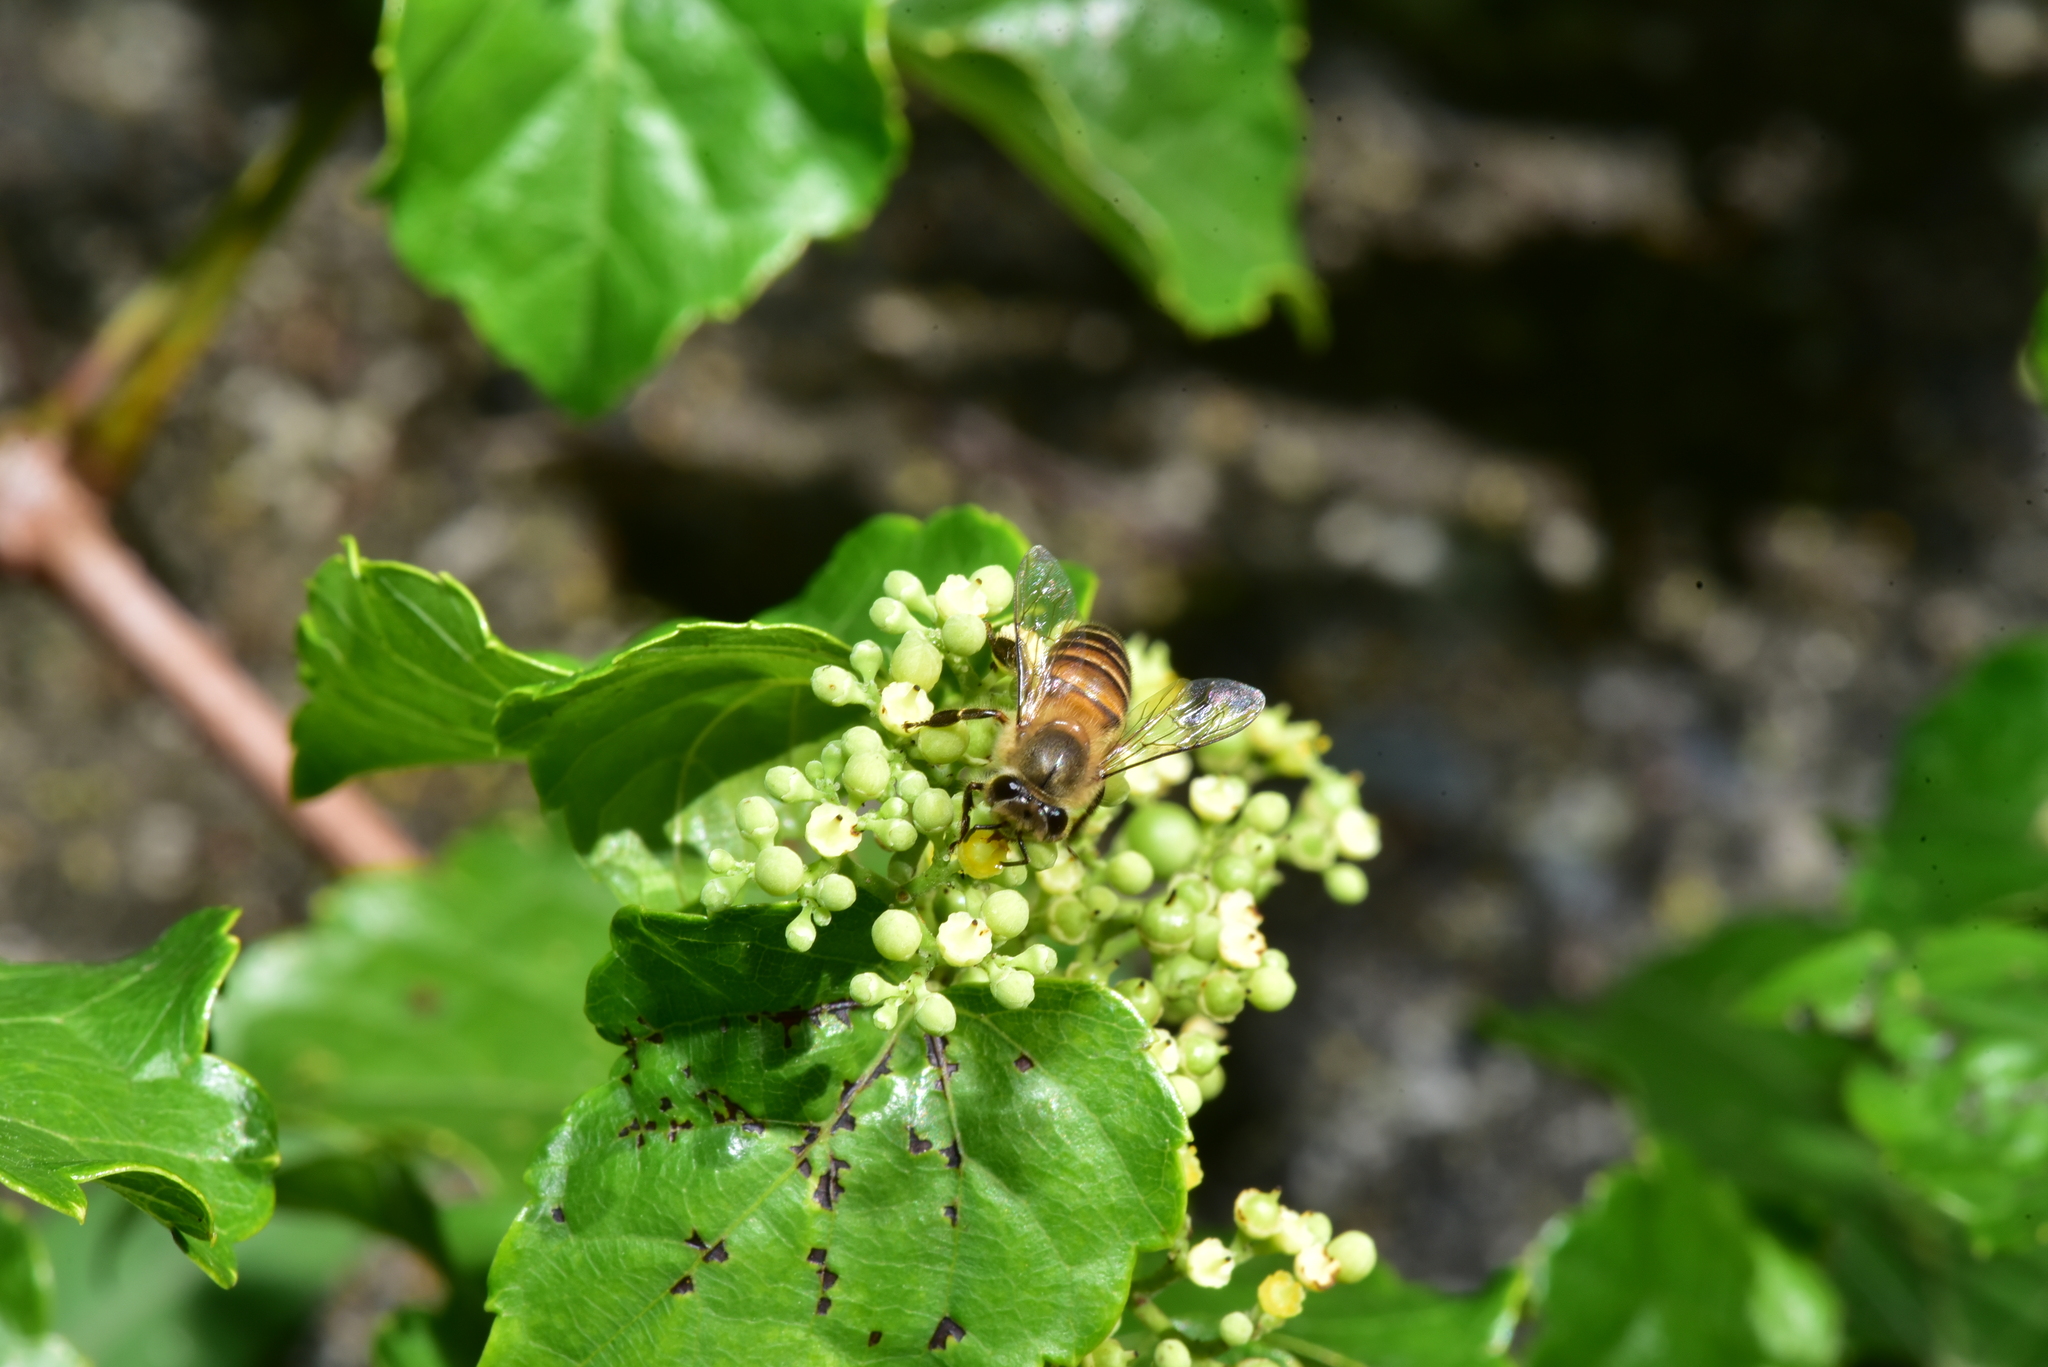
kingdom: Animalia
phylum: Arthropoda
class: Insecta
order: Hymenoptera
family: Apidae
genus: Apis
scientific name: Apis cerana
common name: Honey bee
